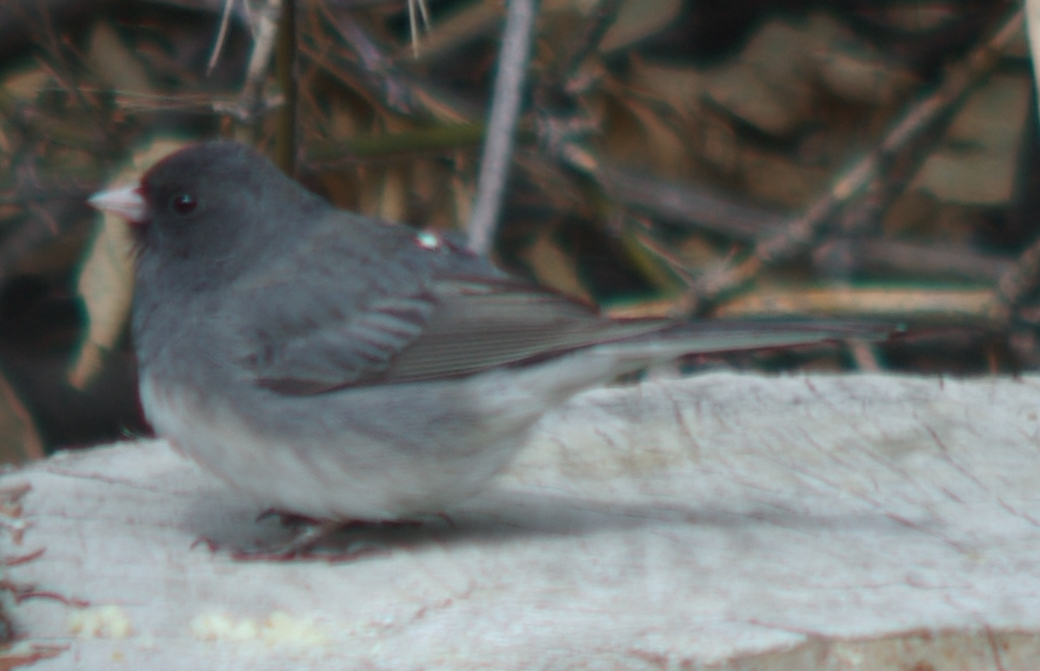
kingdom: Animalia
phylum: Chordata
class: Aves
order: Passeriformes
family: Passerellidae
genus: Junco
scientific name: Junco hyemalis
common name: Dark-eyed junco
